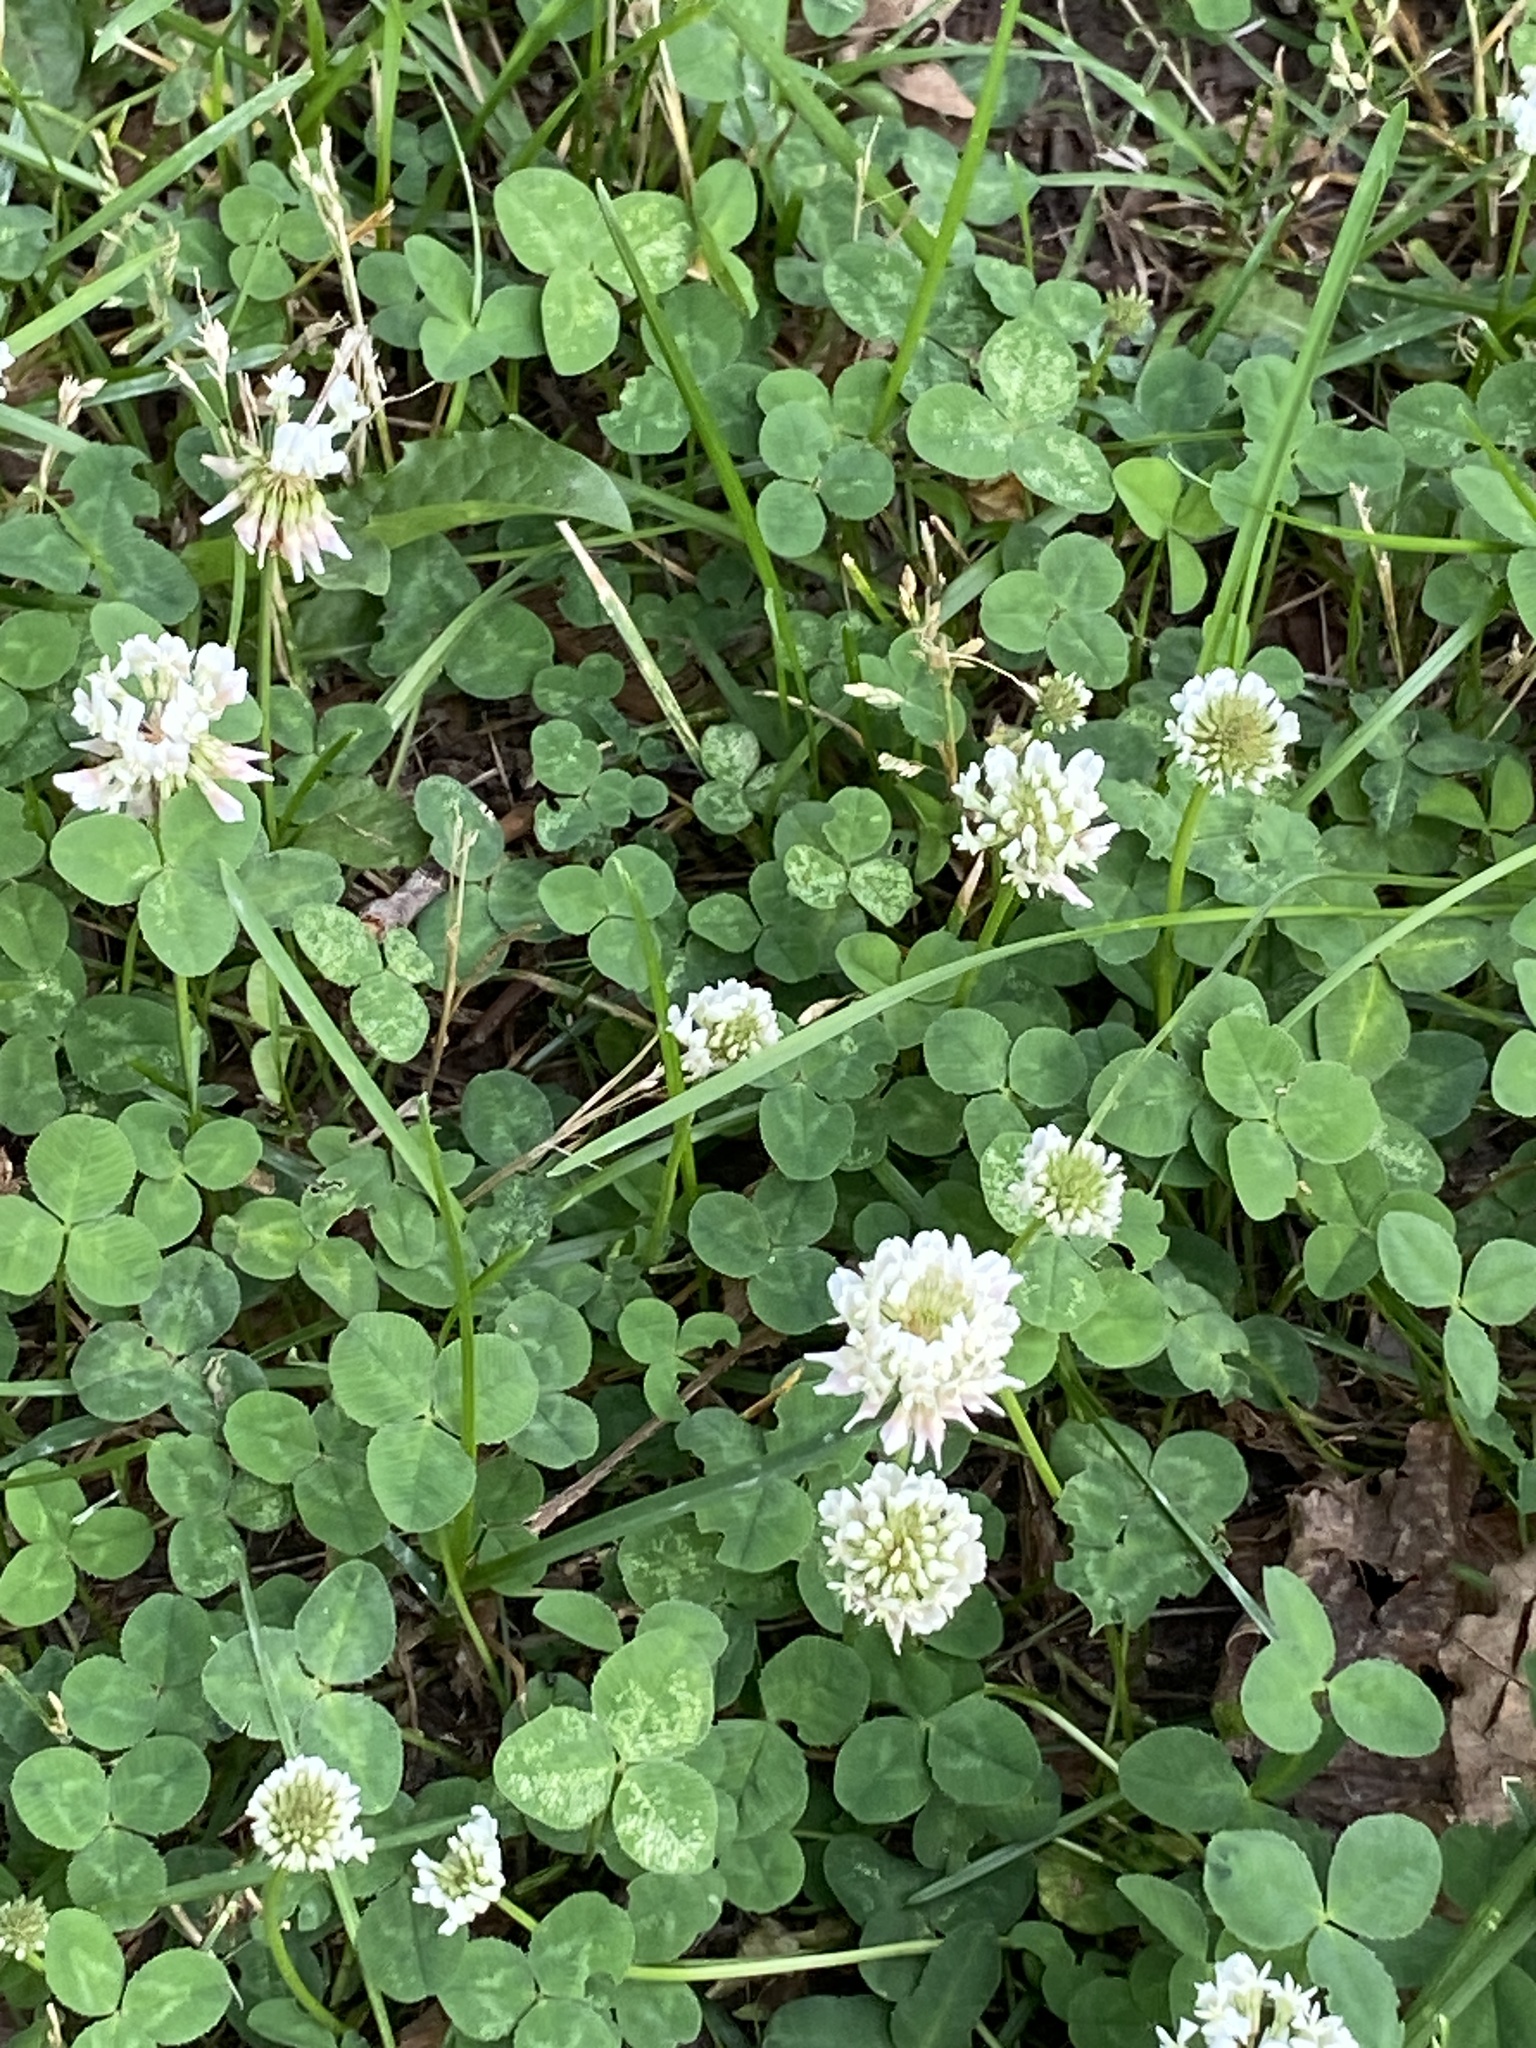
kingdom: Plantae
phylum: Tracheophyta
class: Magnoliopsida
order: Fabales
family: Fabaceae
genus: Trifolium
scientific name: Trifolium repens
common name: White clover
